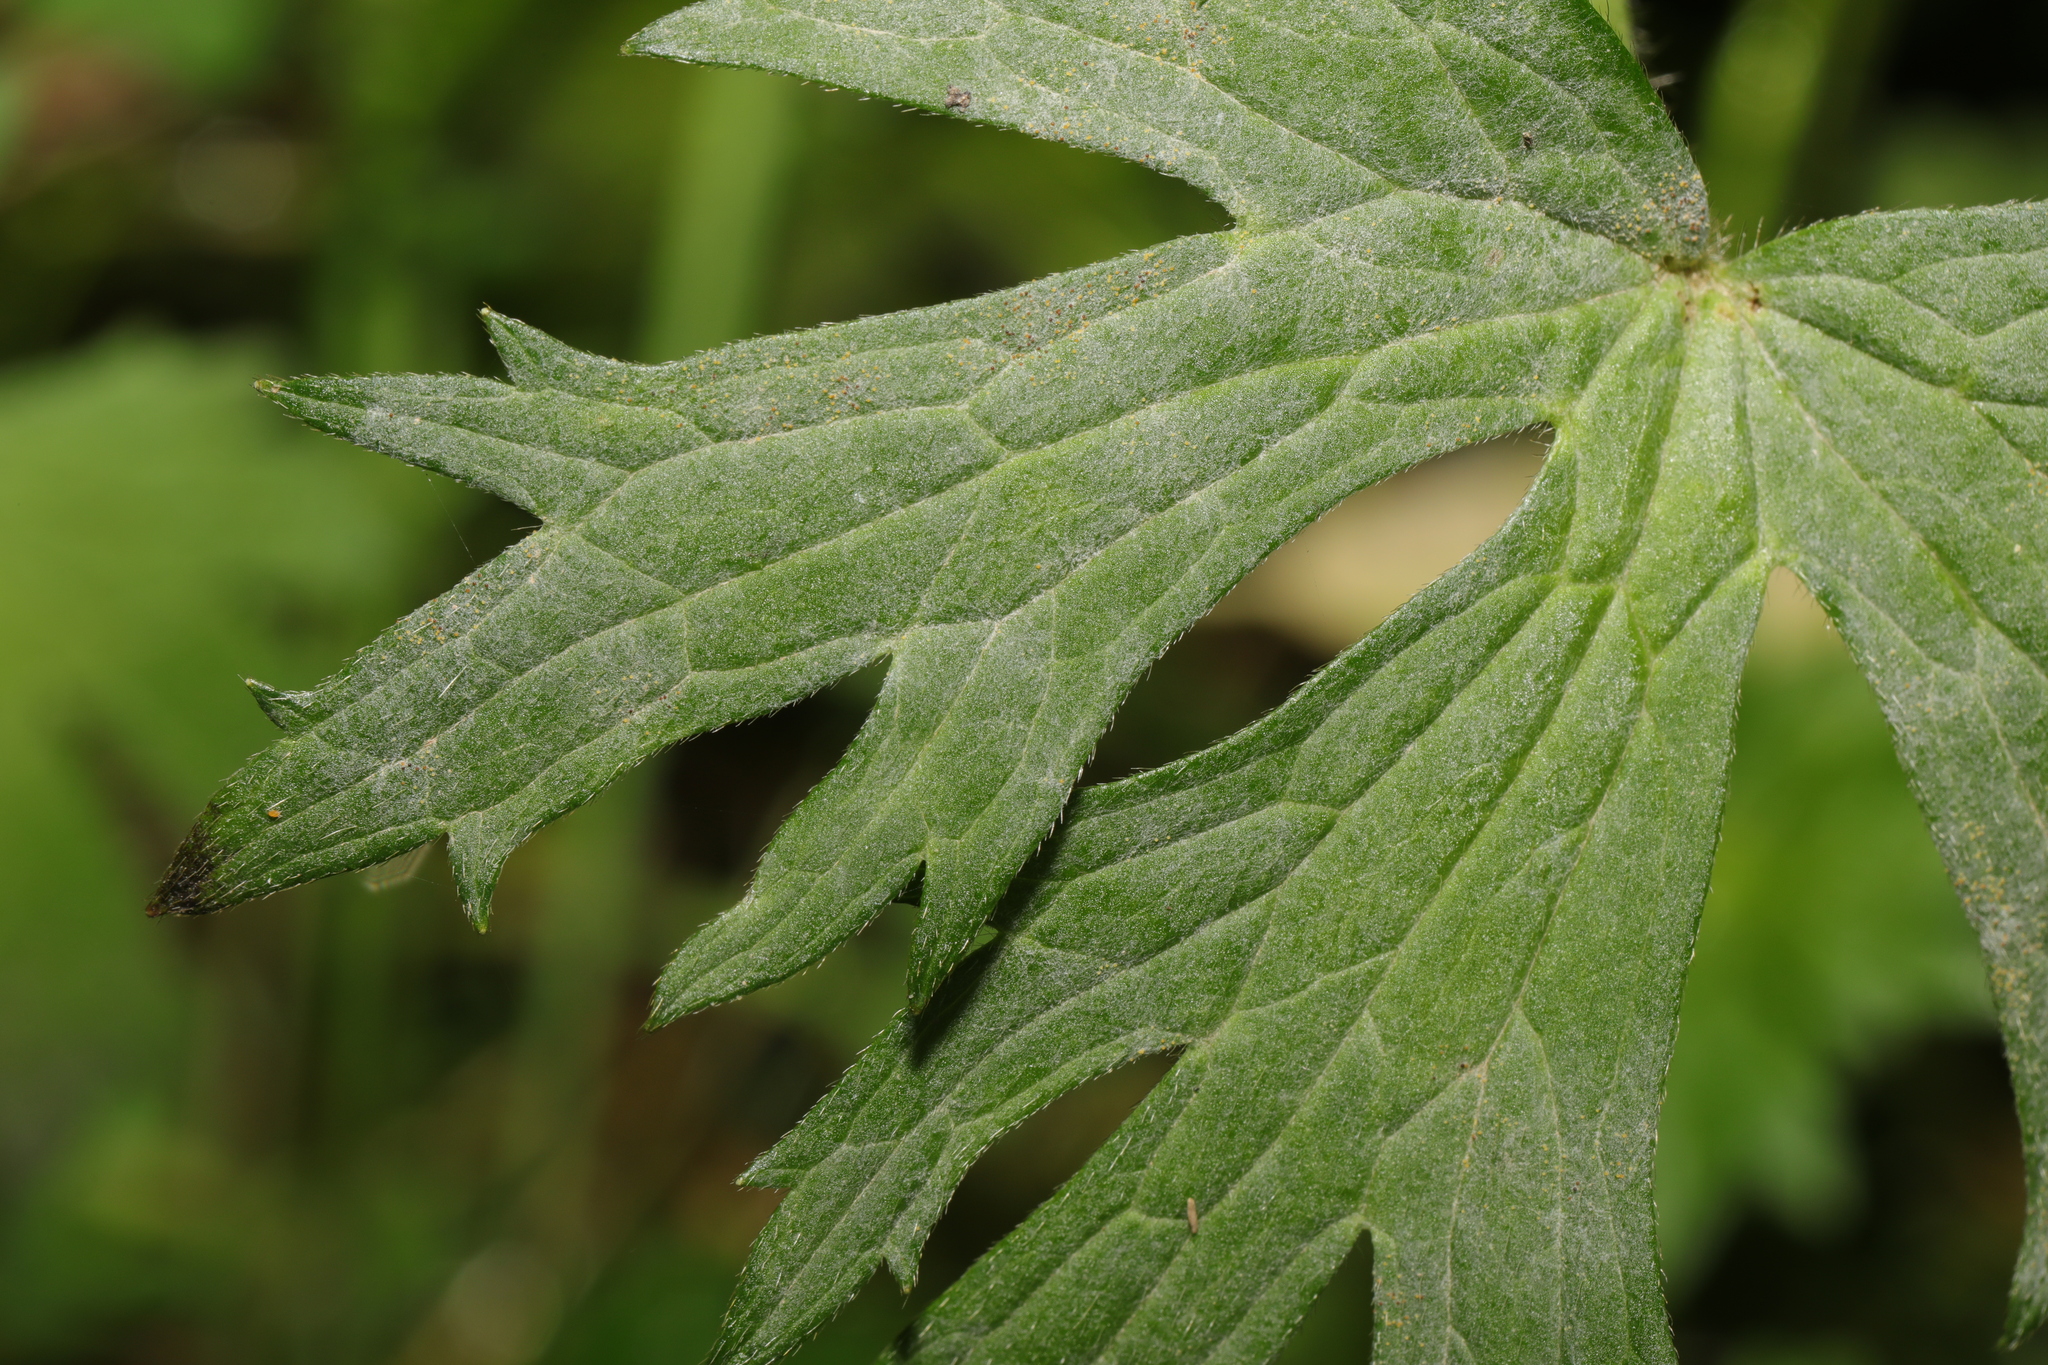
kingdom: Fungi
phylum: Ascomycota
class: Leotiomycetes
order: Helotiales
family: Erysiphaceae
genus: Erysiphe
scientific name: Erysiphe aquilegiae
